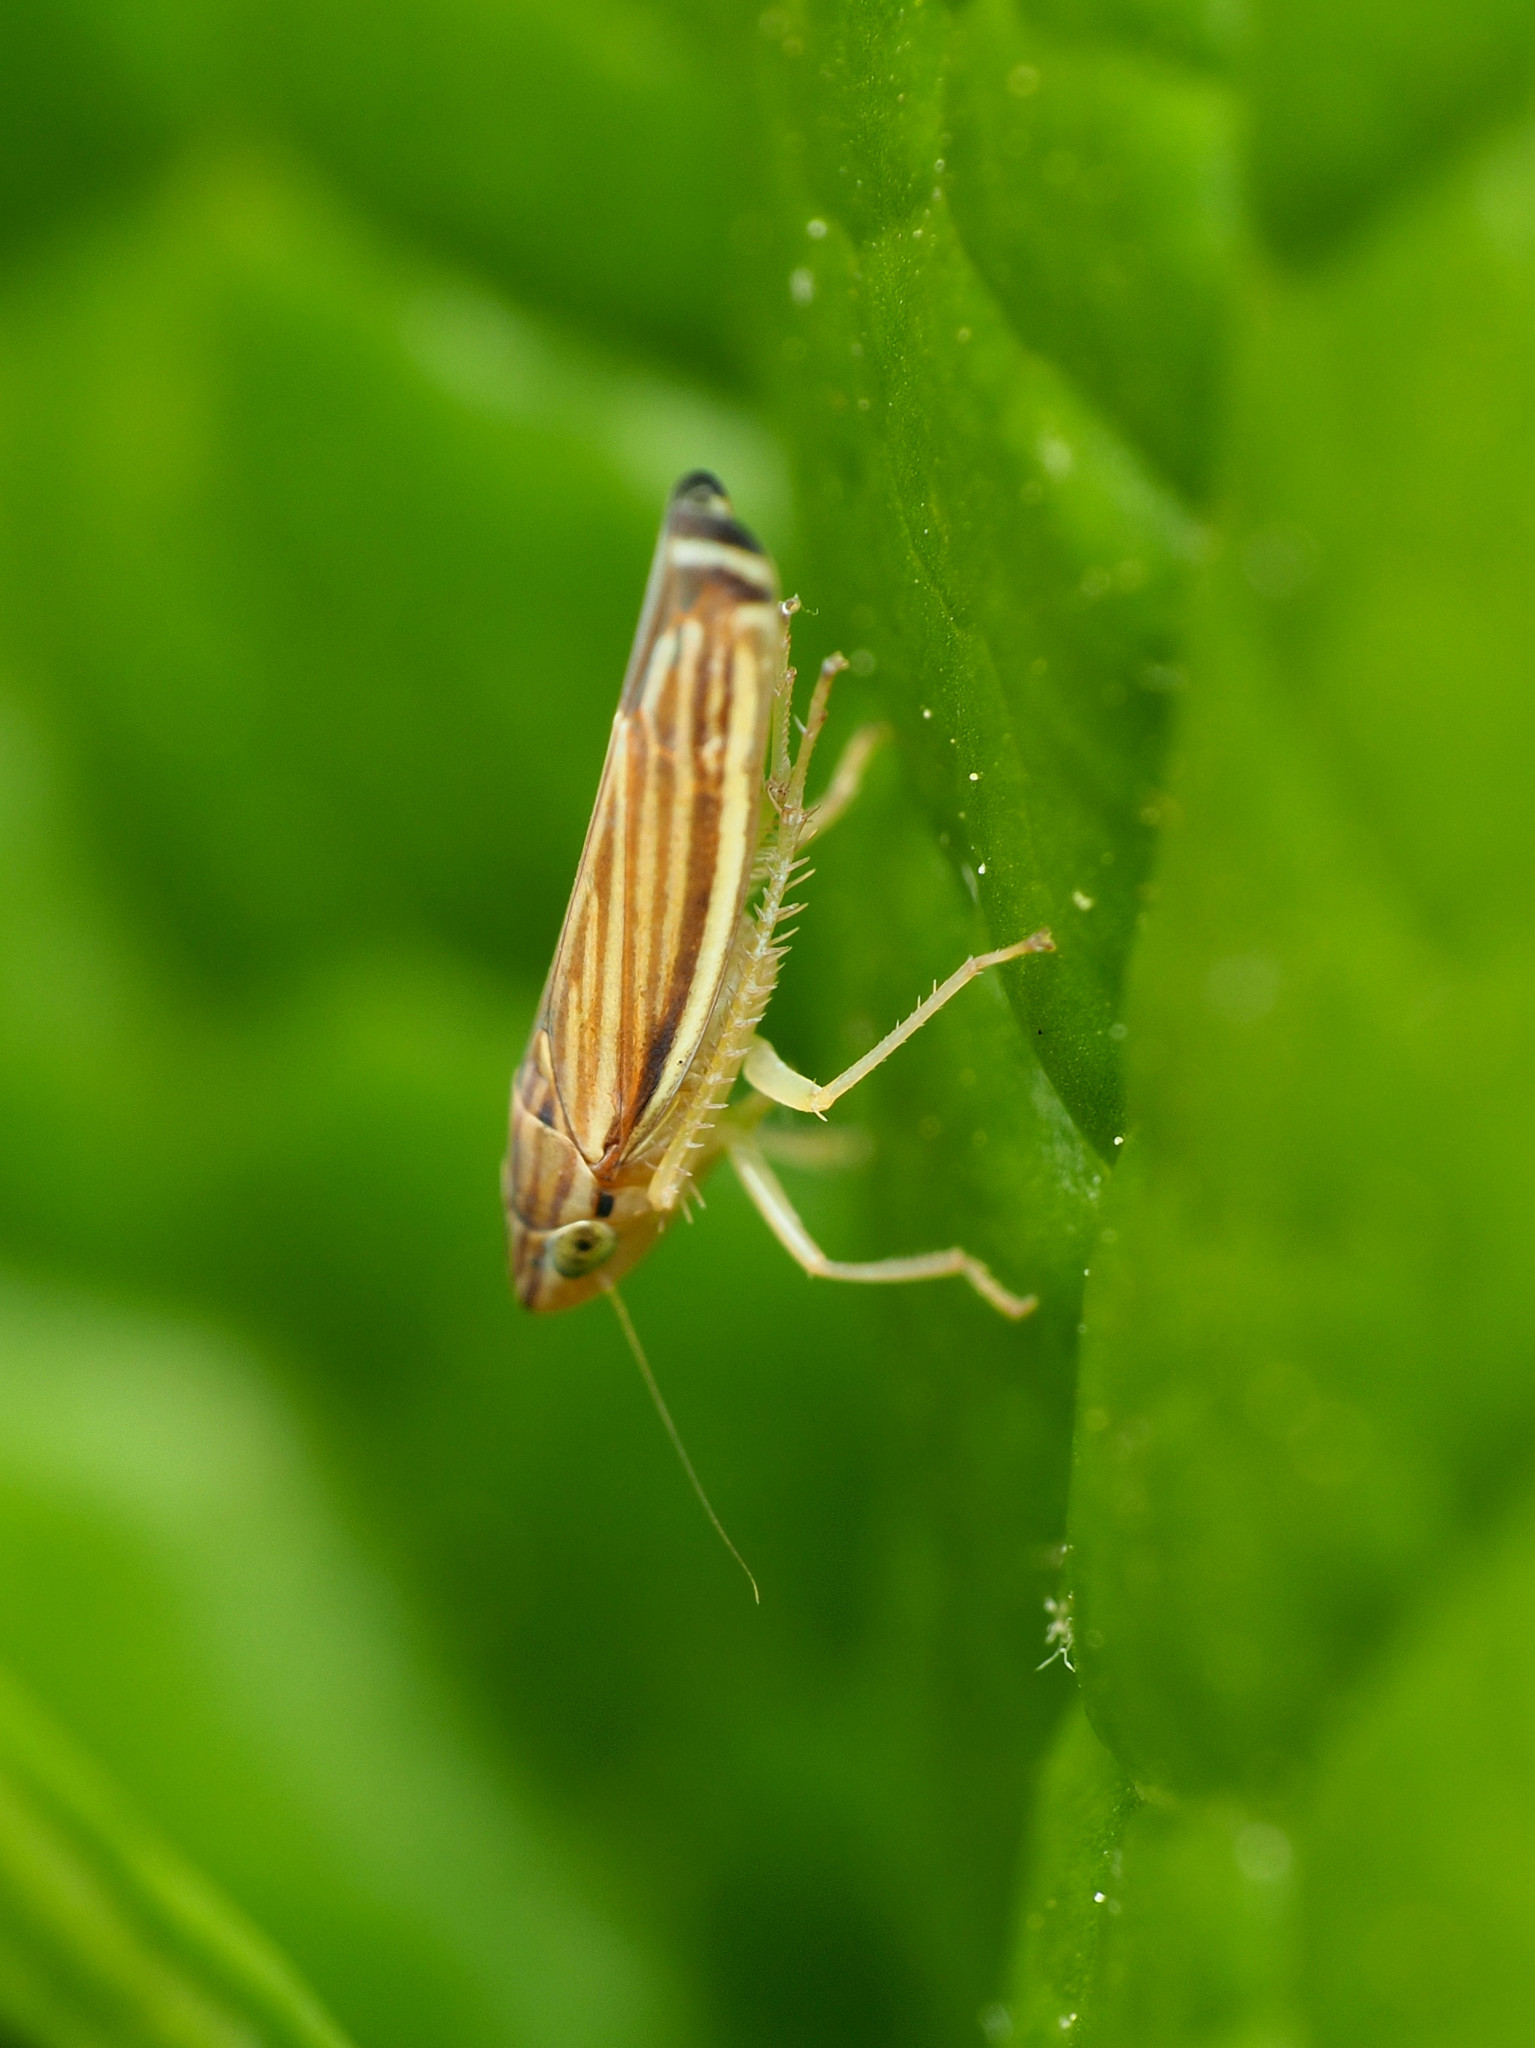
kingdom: Animalia
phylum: Arthropoda
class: Insecta
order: Hemiptera
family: Cicadellidae
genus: Sibovia
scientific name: Sibovia occatoria
